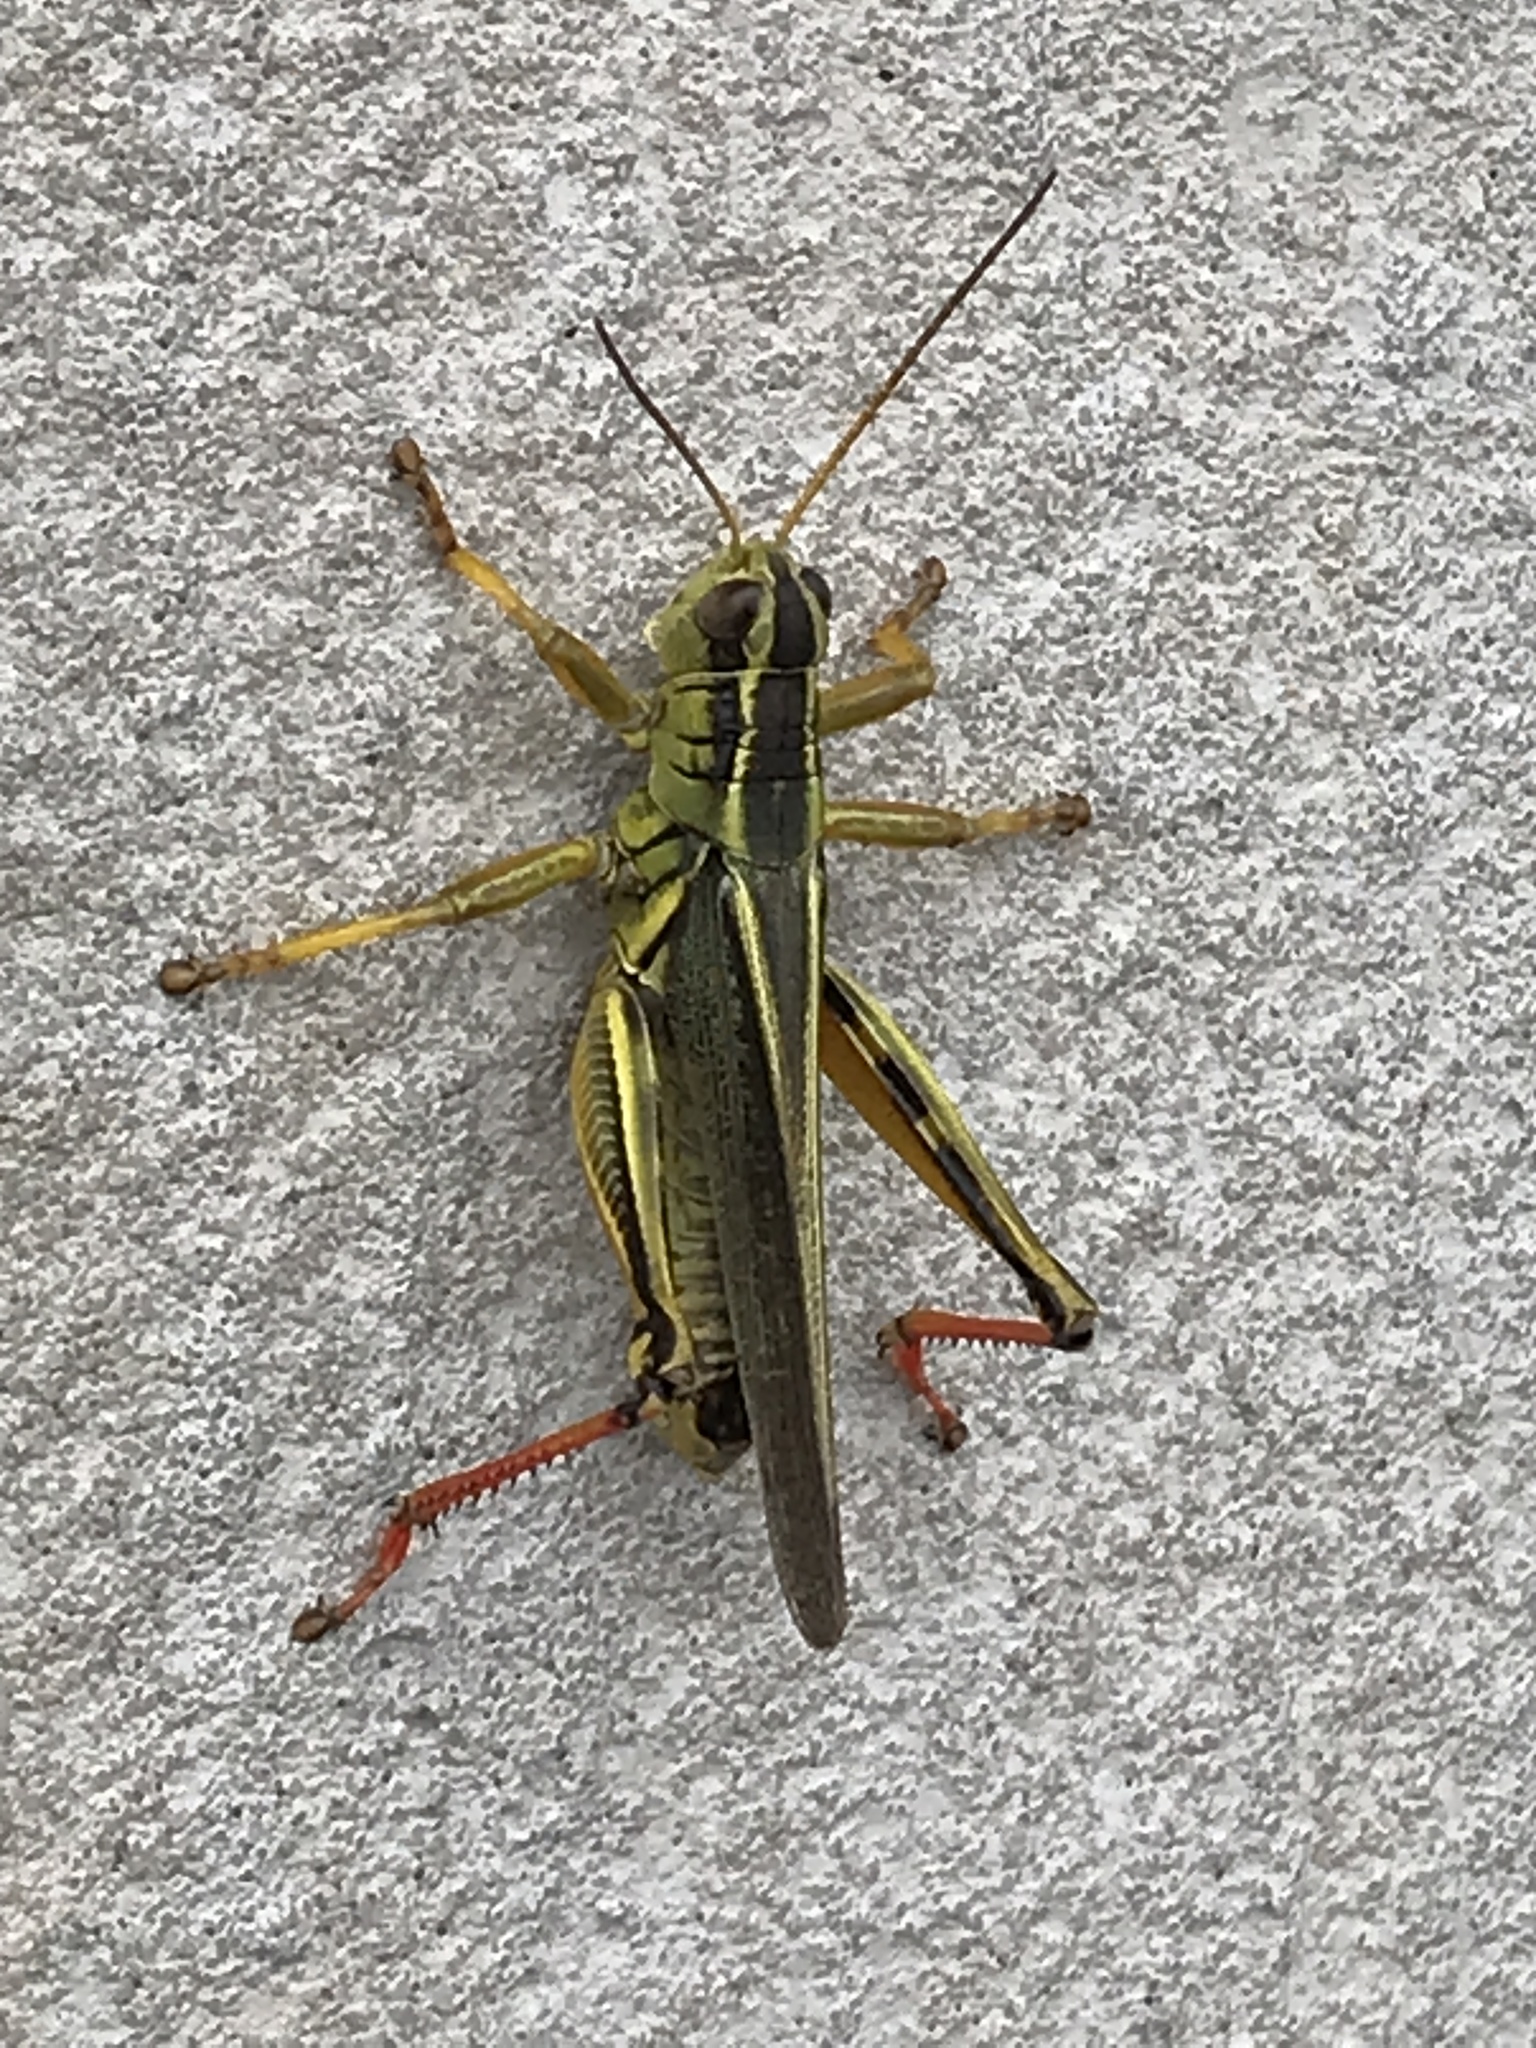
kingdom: Animalia
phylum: Arthropoda
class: Insecta
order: Orthoptera
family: Acrididae
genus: Melanoplus
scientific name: Melanoplus bivittatus
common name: Two-striped grasshopper
